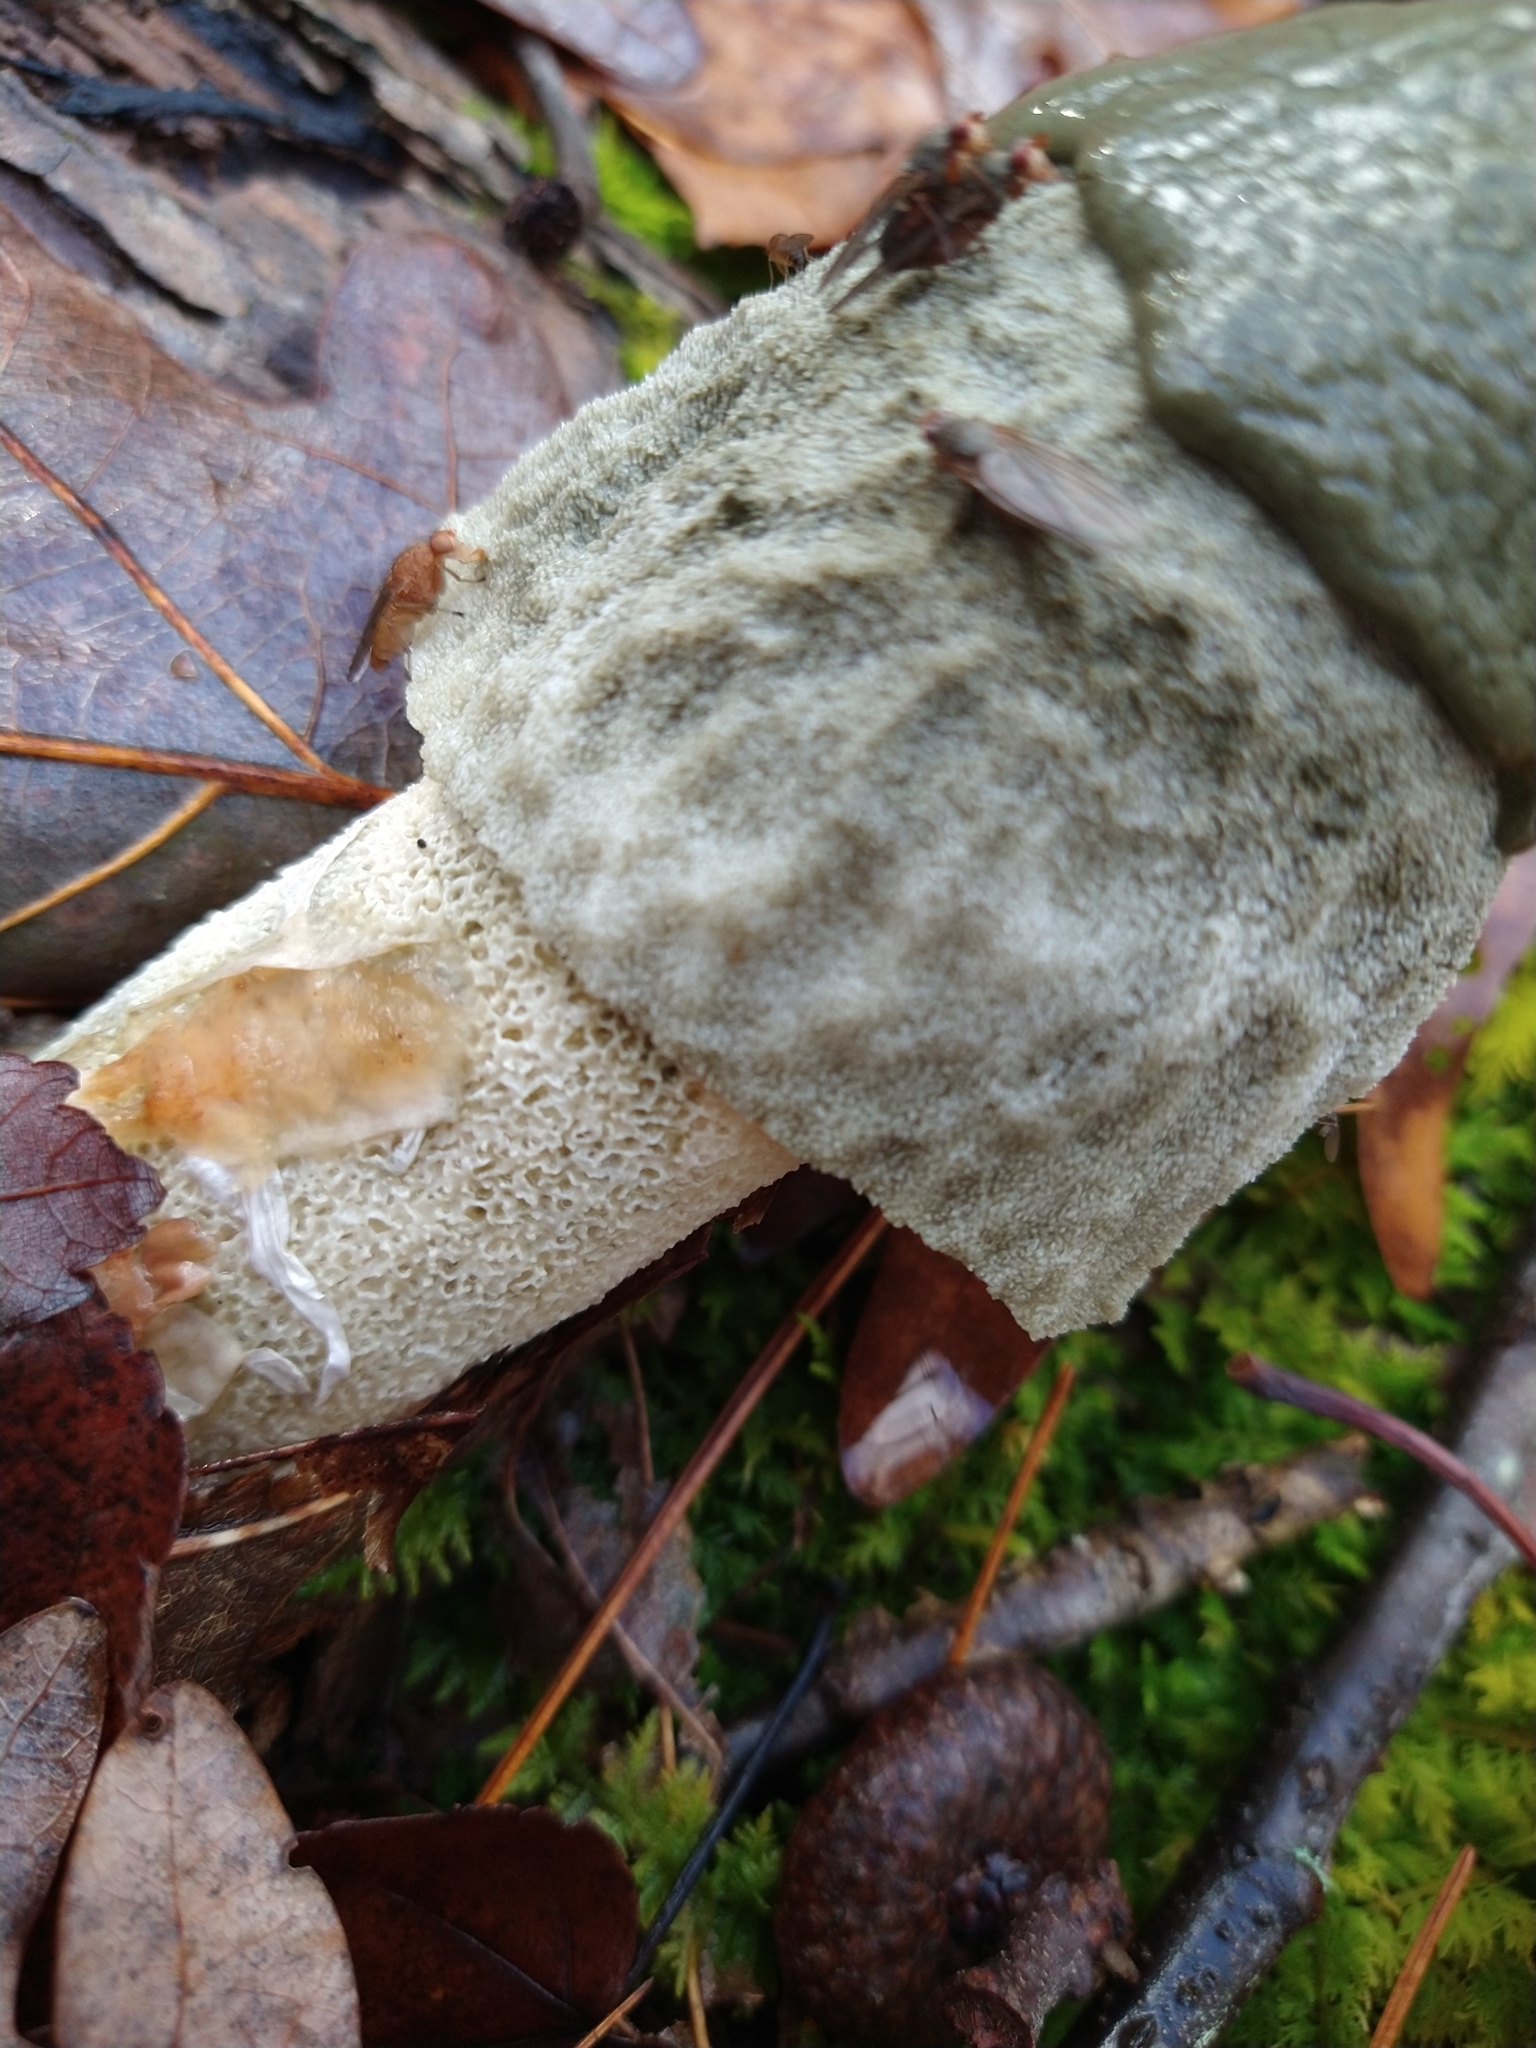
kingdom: Fungi
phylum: Basidiomycota
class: Agaricomycetes
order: Phallales
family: Phallaceae
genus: Phallus
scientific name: Phallus ravenelii
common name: Ravenel's stinkhorn
